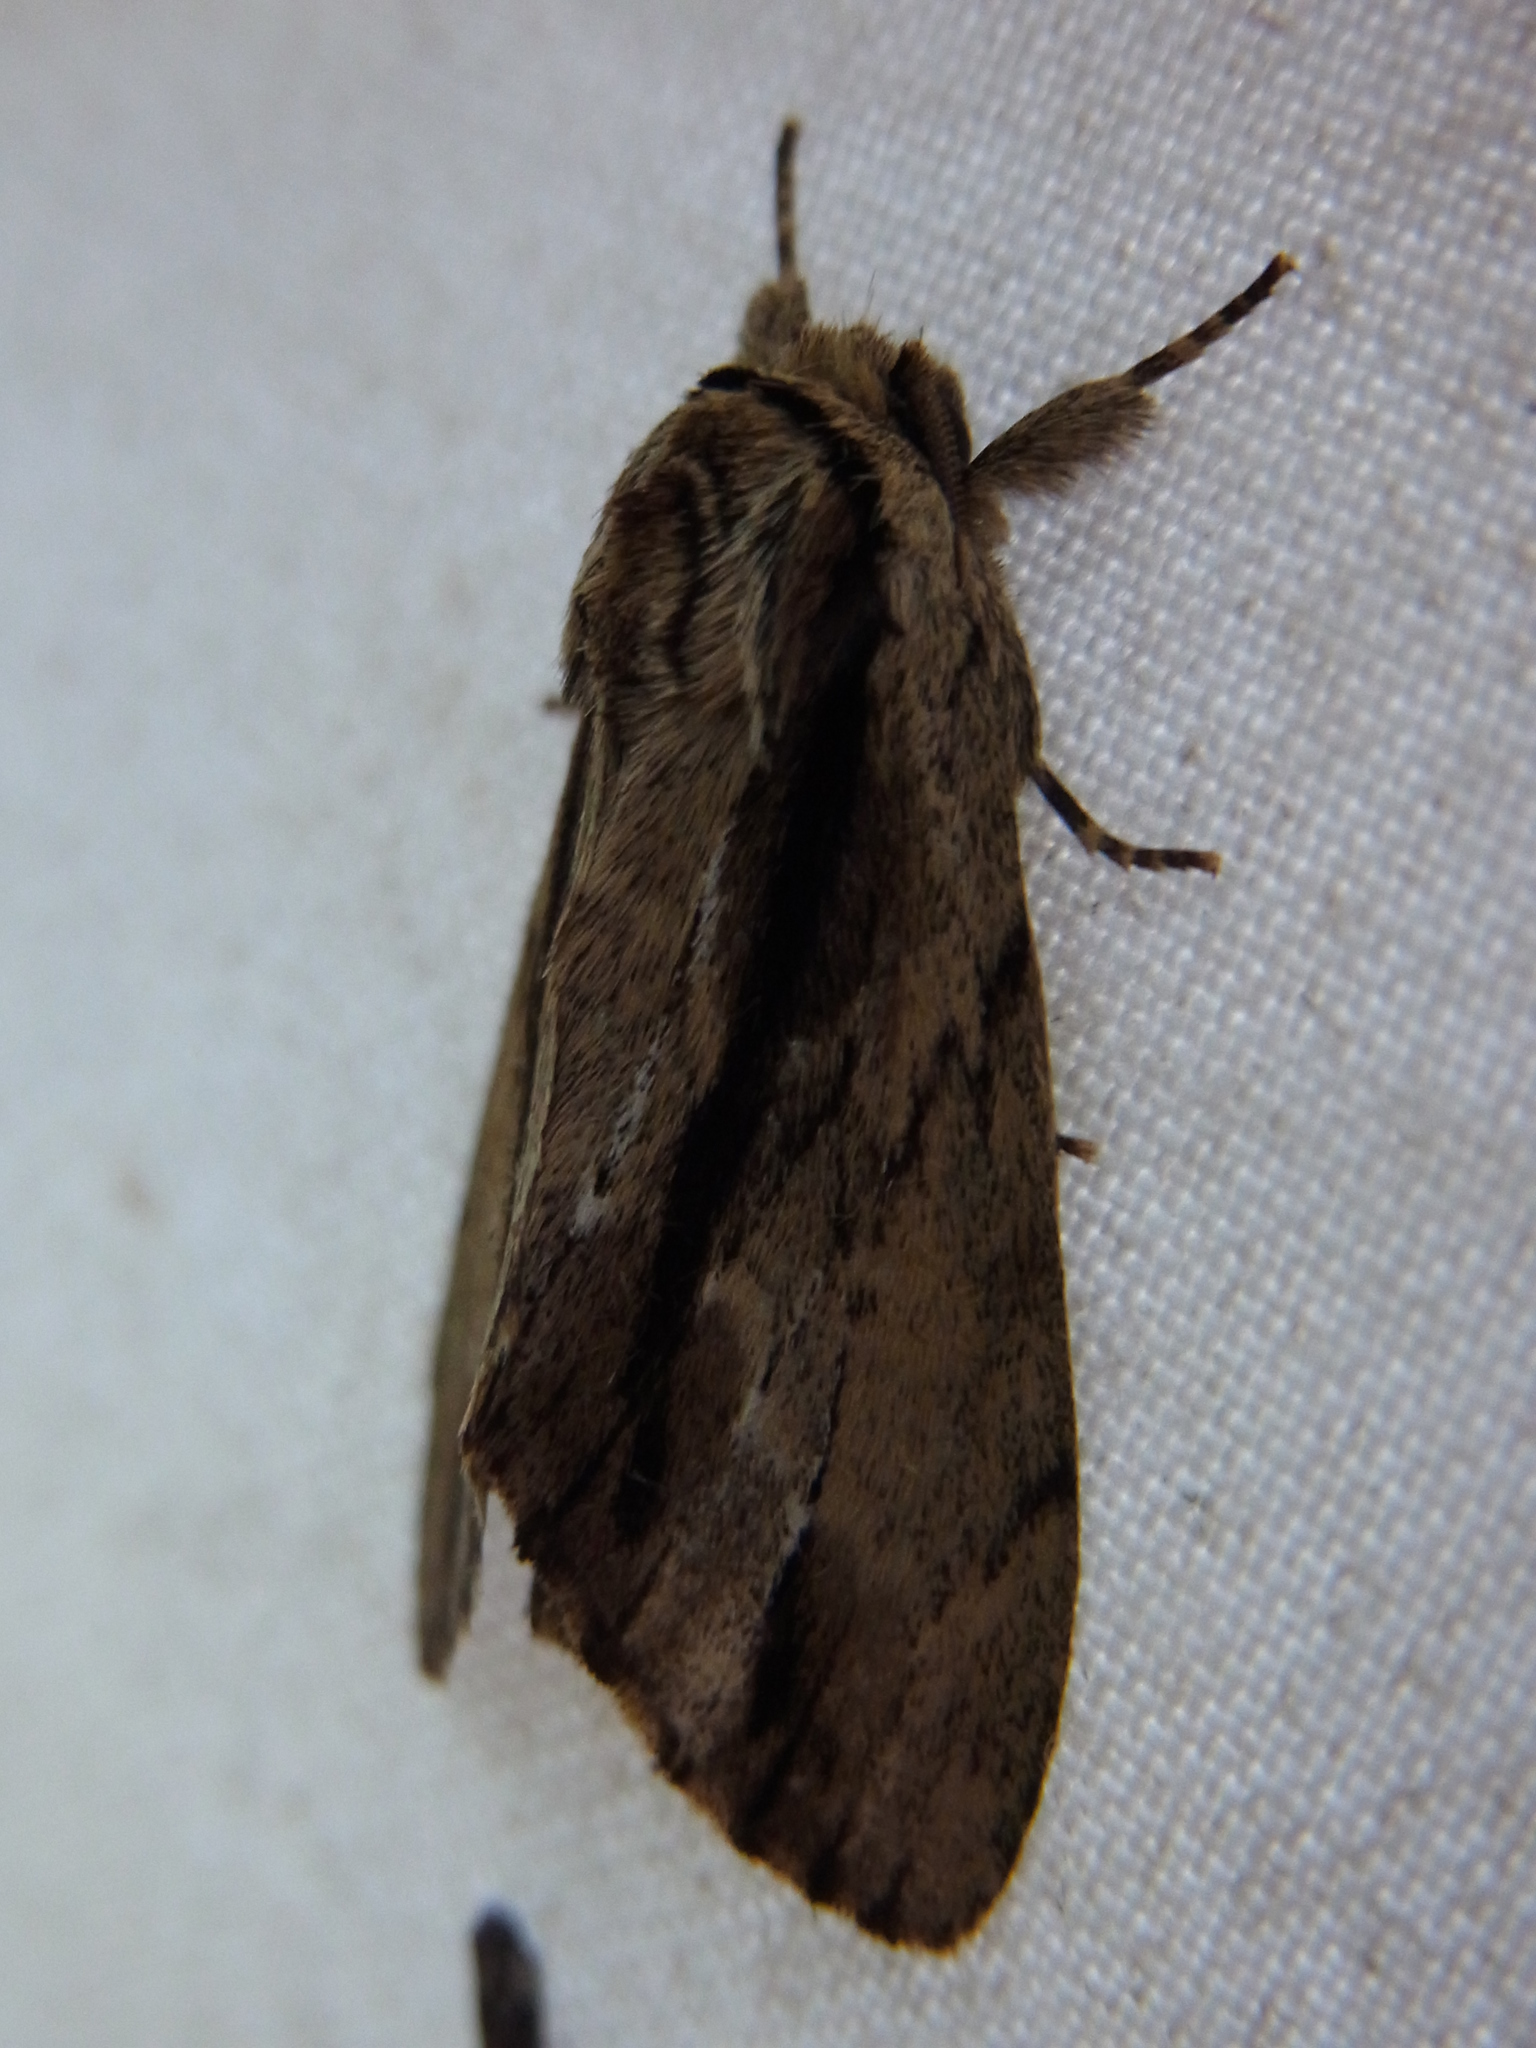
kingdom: Animalia
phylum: Arthropoda
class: Insecta
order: Lepidoptera
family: Notodontidae
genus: Shaka
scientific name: Shaka atrovittatus
